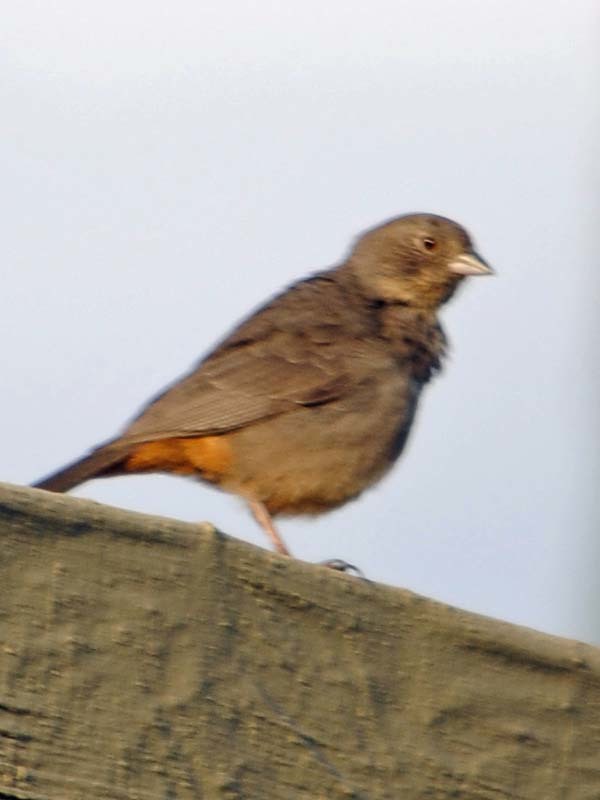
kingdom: Animalia
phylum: Chordata
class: Aves
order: Passeriformes
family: Passerellidae
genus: Melozone
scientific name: Melozone fusca
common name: Canyon towhee
